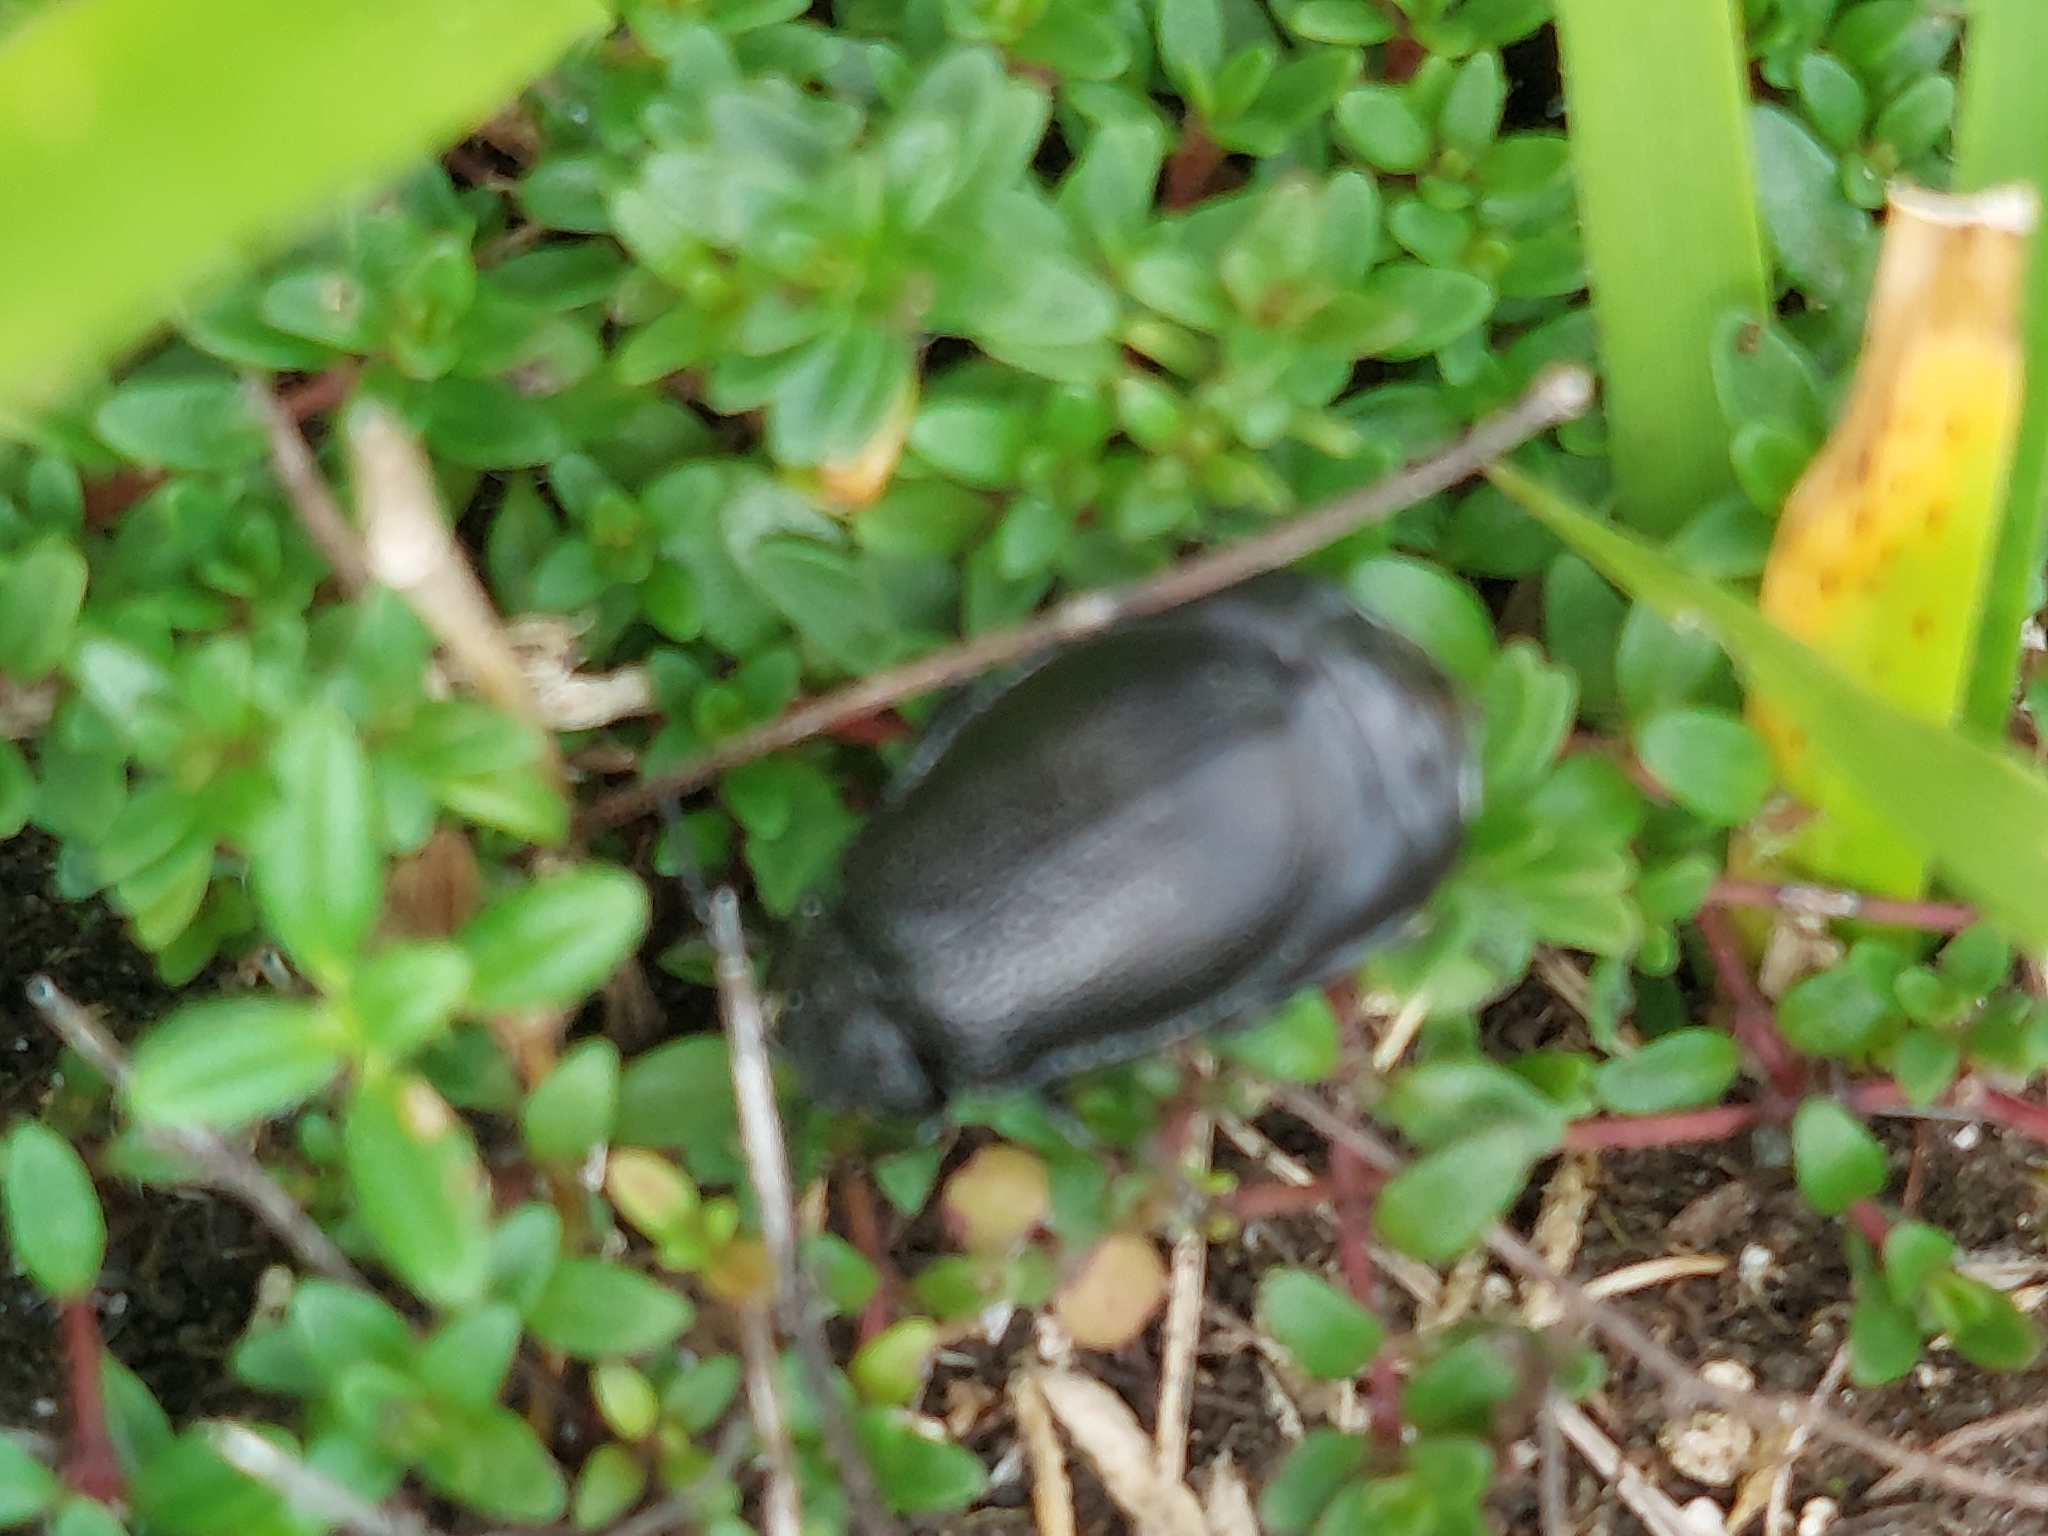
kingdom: Animalia
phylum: Arthropoda
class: Insecta
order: Coleoptera
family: Chrysomelidae
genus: Galeruca
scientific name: Galeruca tanaceti
